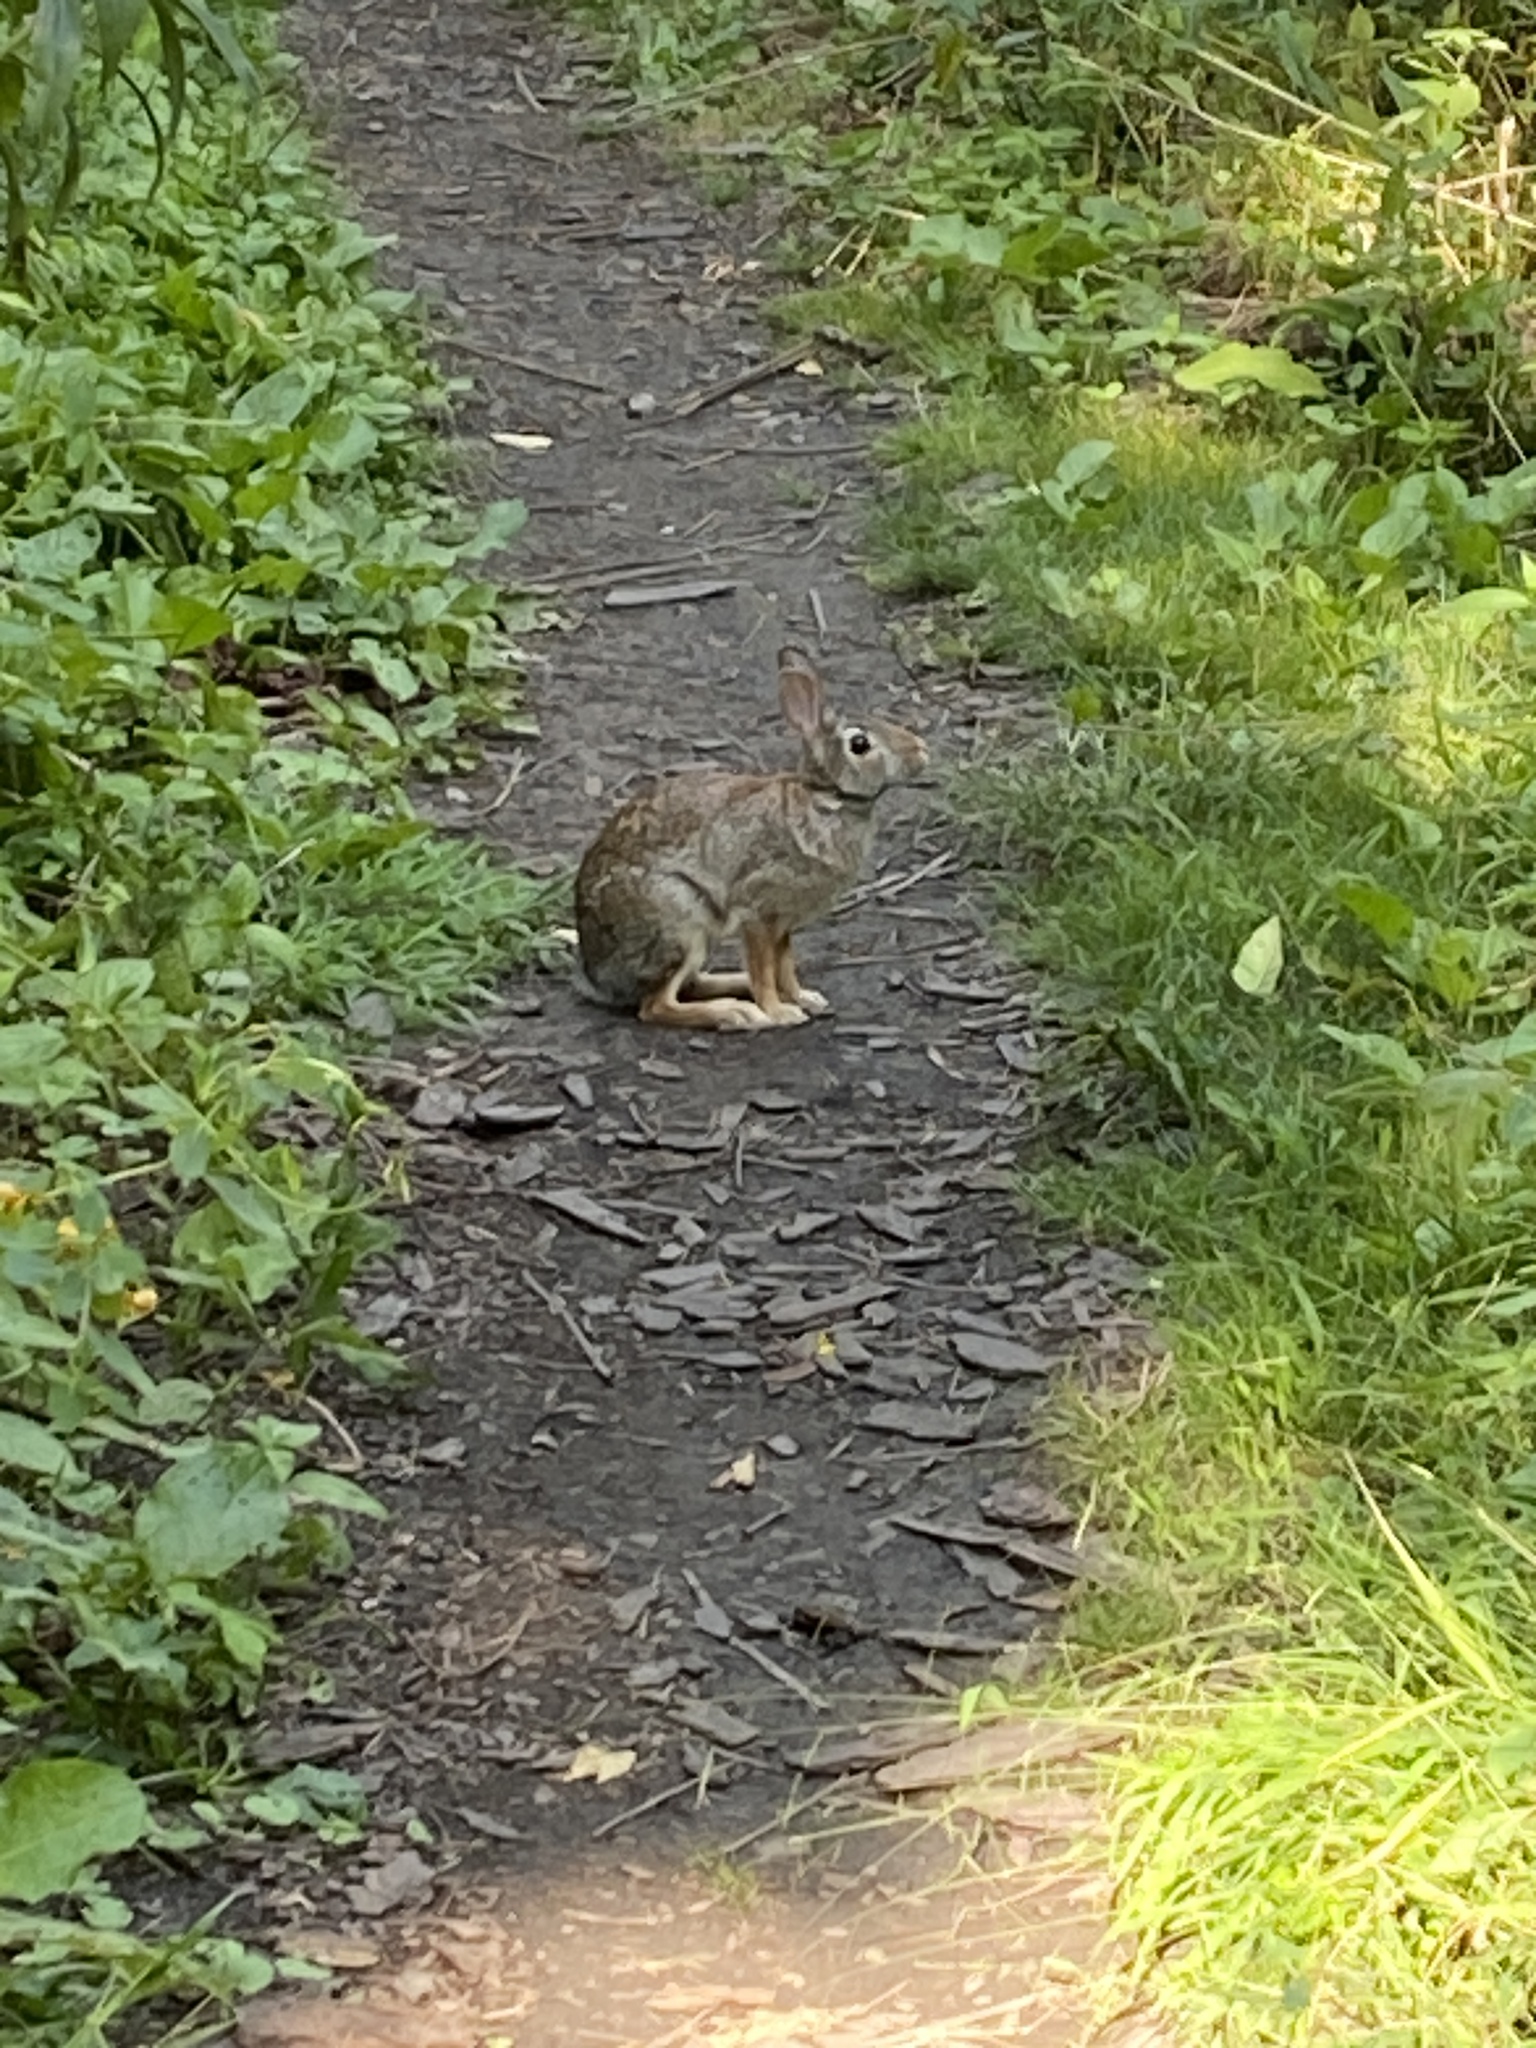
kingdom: Animalia
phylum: Chordata
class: Mammalia
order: Lagomorpha
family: Leporidae
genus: Sylvilagus
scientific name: Sylvilagus floridanus
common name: Eastern cottontail
